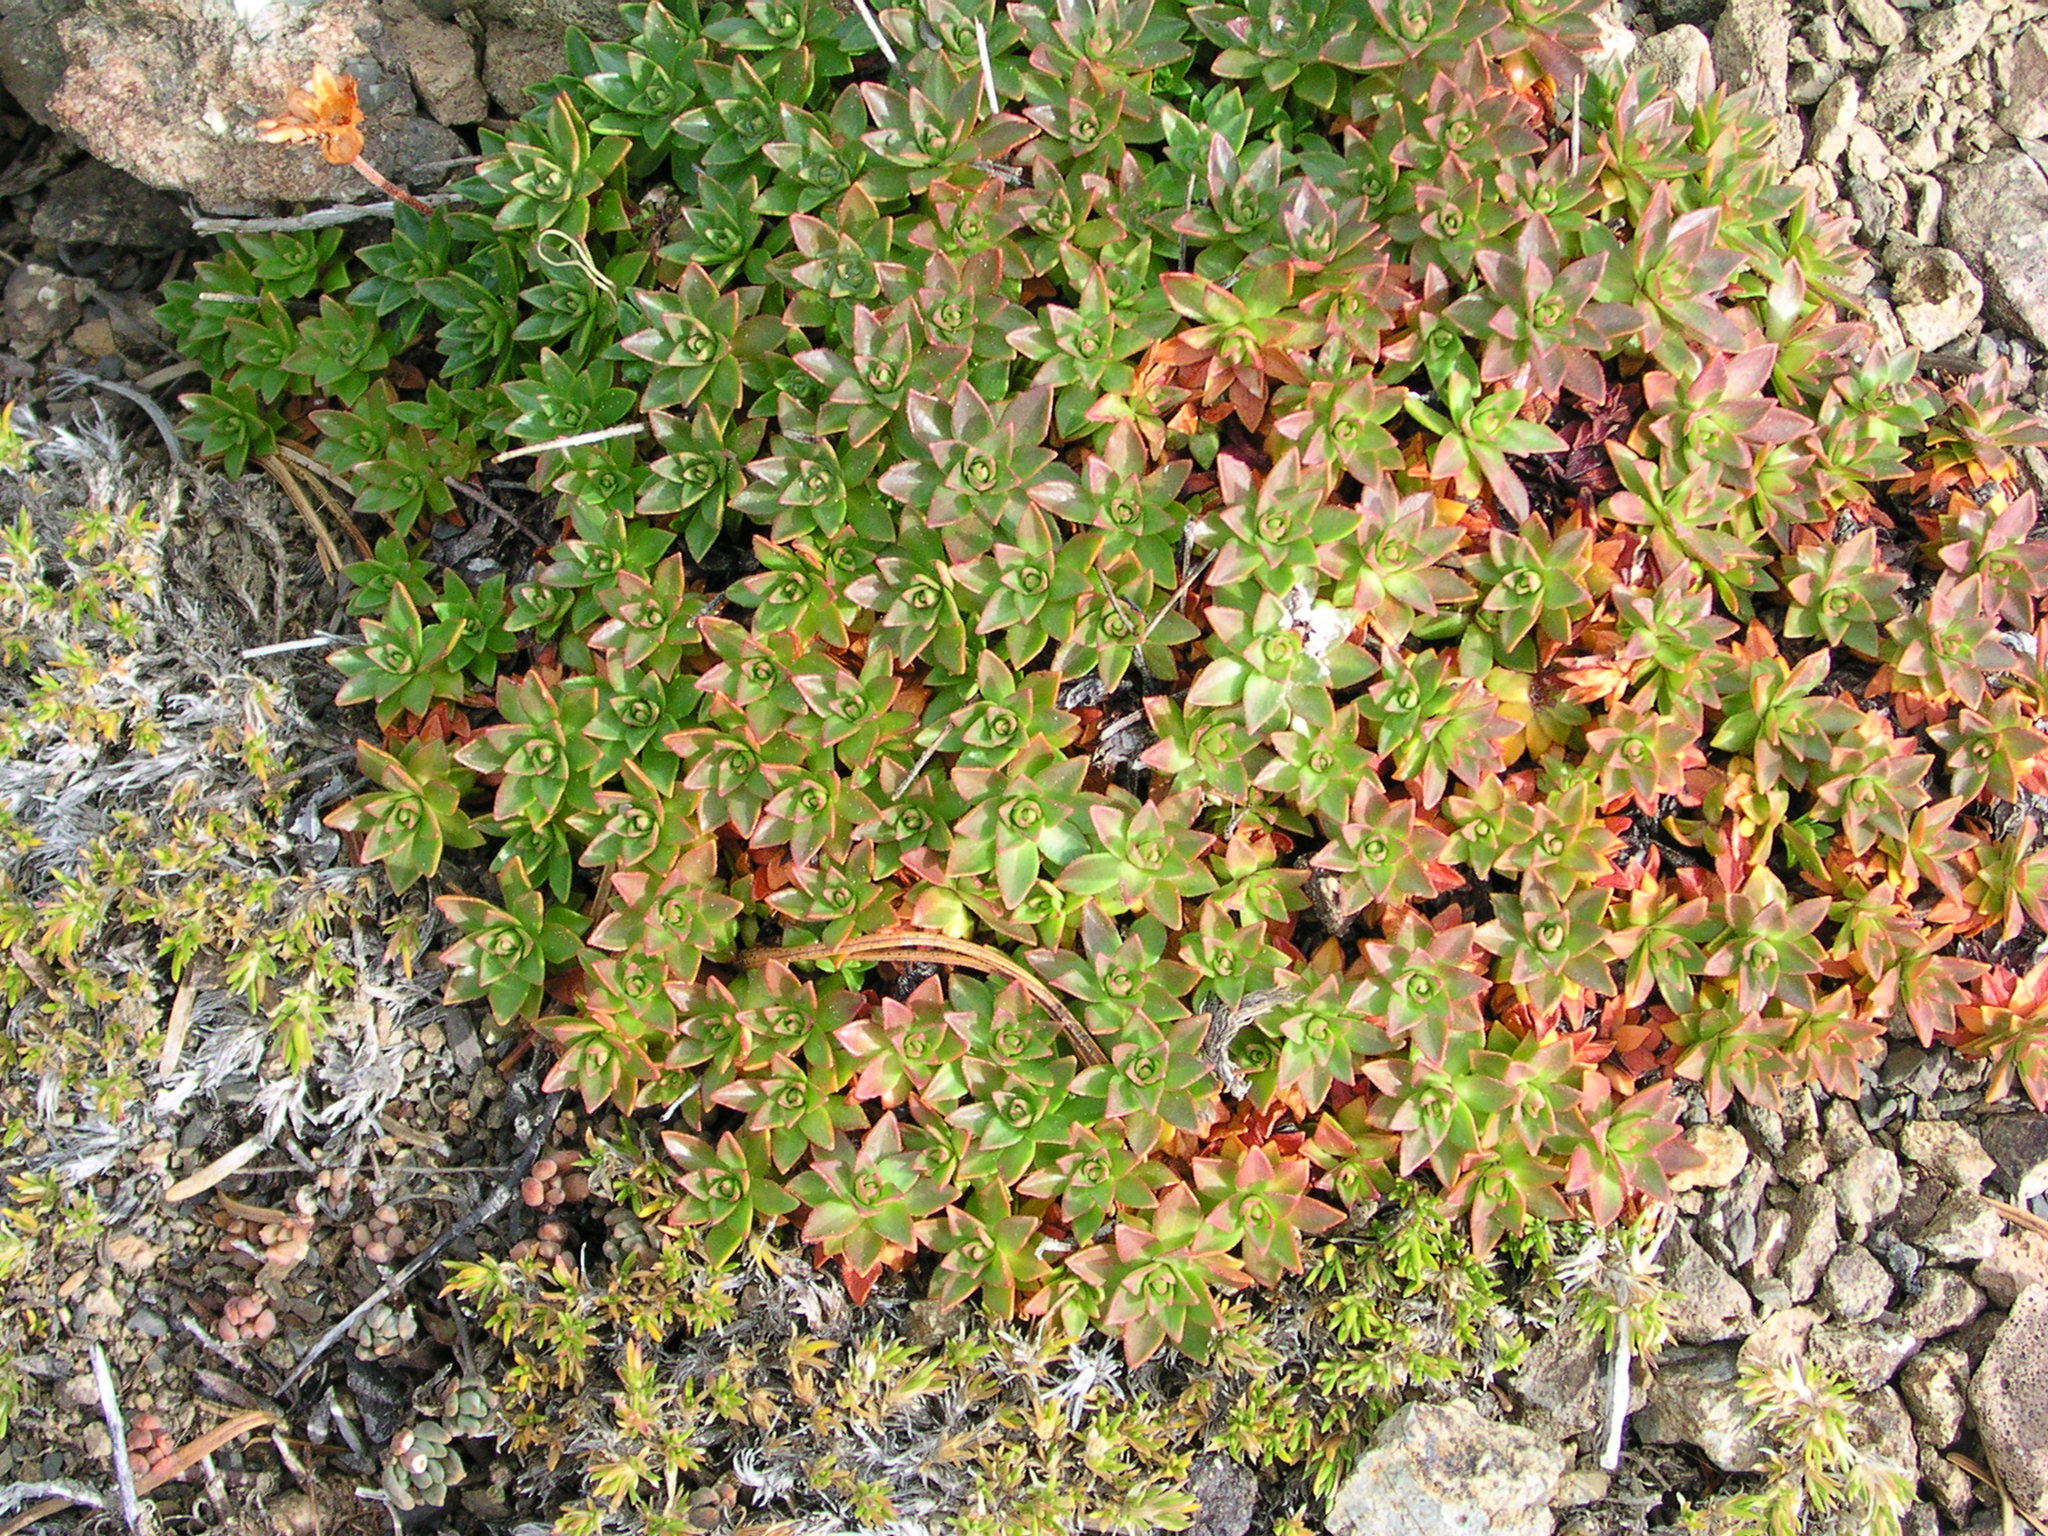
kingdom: Plantae
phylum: Tracheophyta
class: Magnoliopsida
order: Ericales
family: Primulaceae
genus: Androsace
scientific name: Androsace laevigata
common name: Cliff dwarf-primrose
